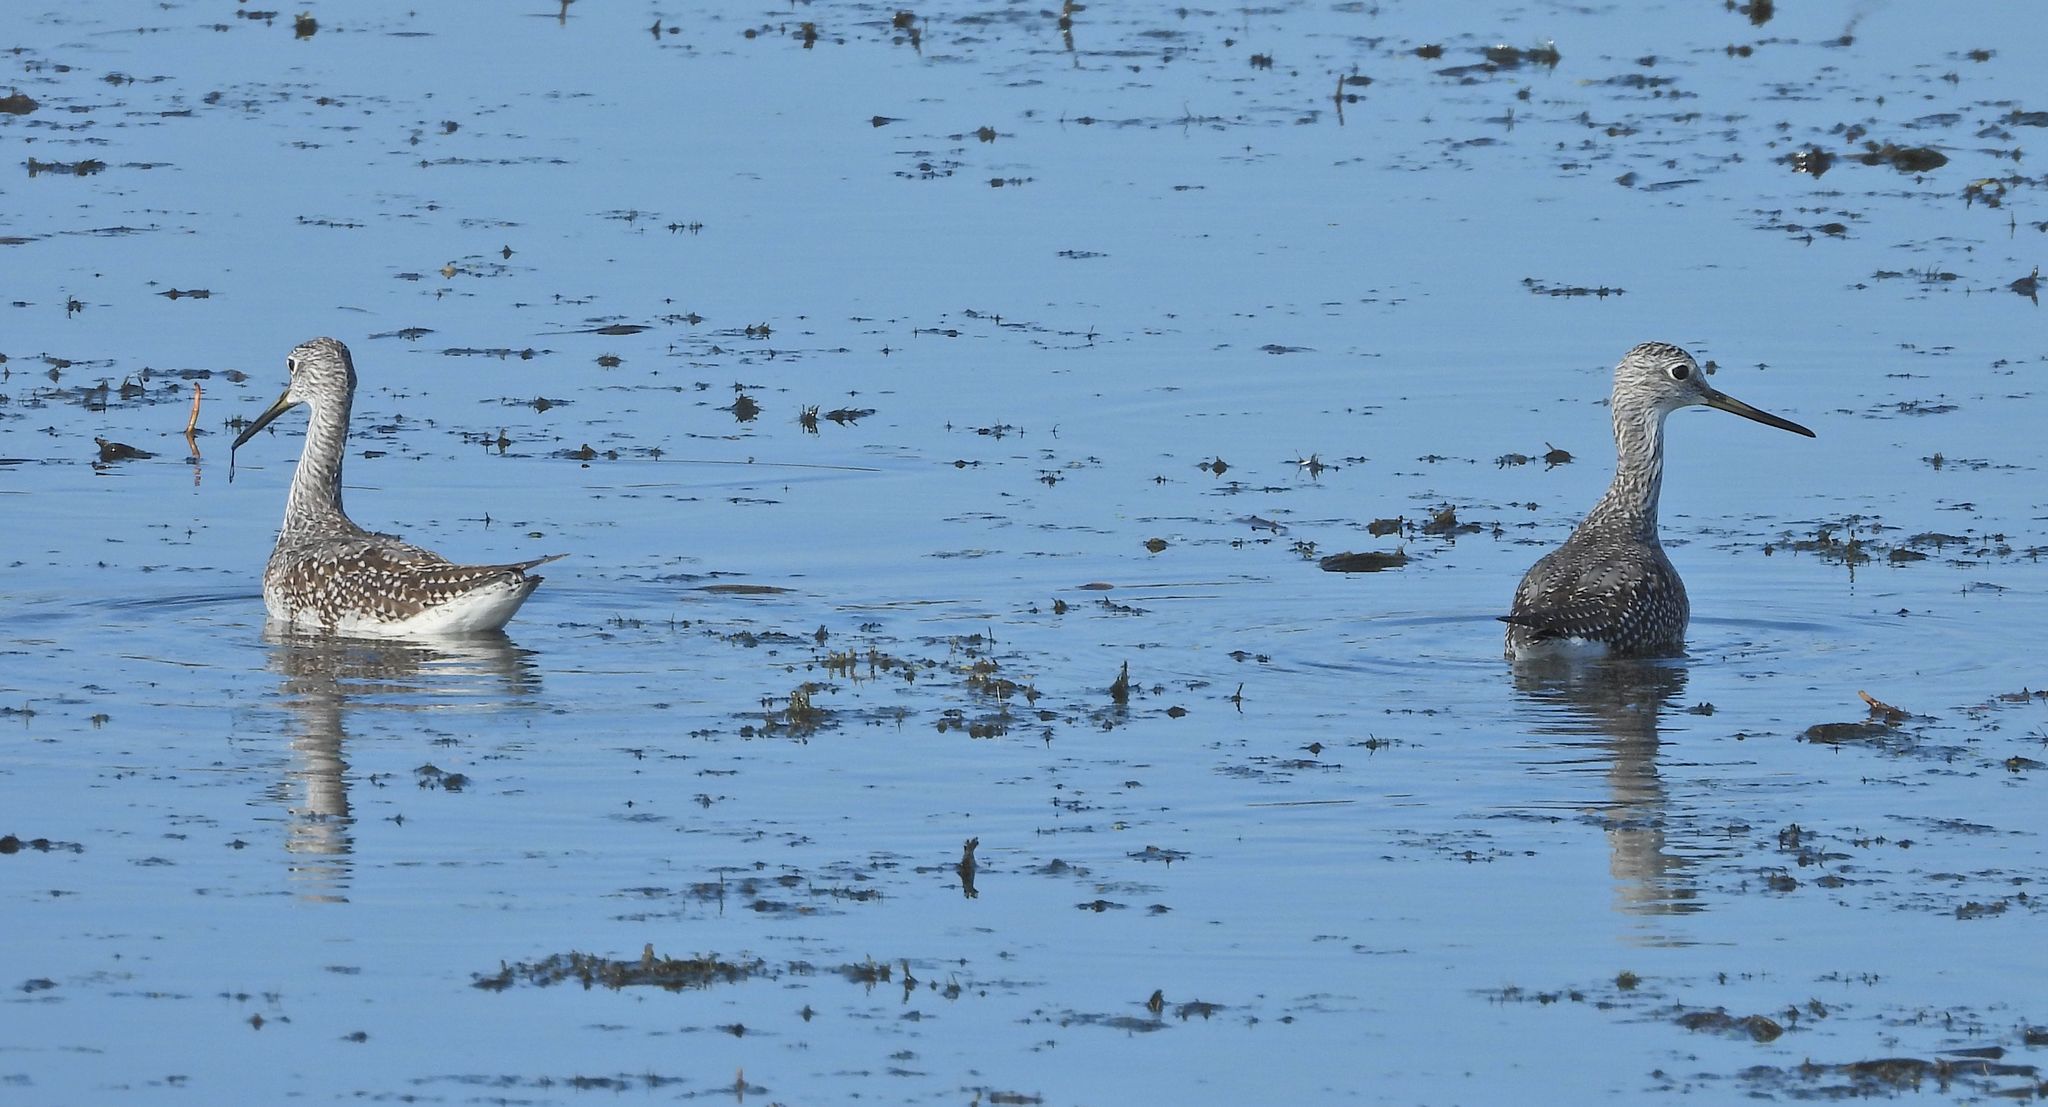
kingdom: Animalia
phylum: Chordata
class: Aves
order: Charadriiformes
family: Scolopacidae
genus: Tringa
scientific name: Tringa melanoleuca
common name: Greater yellowlegs
